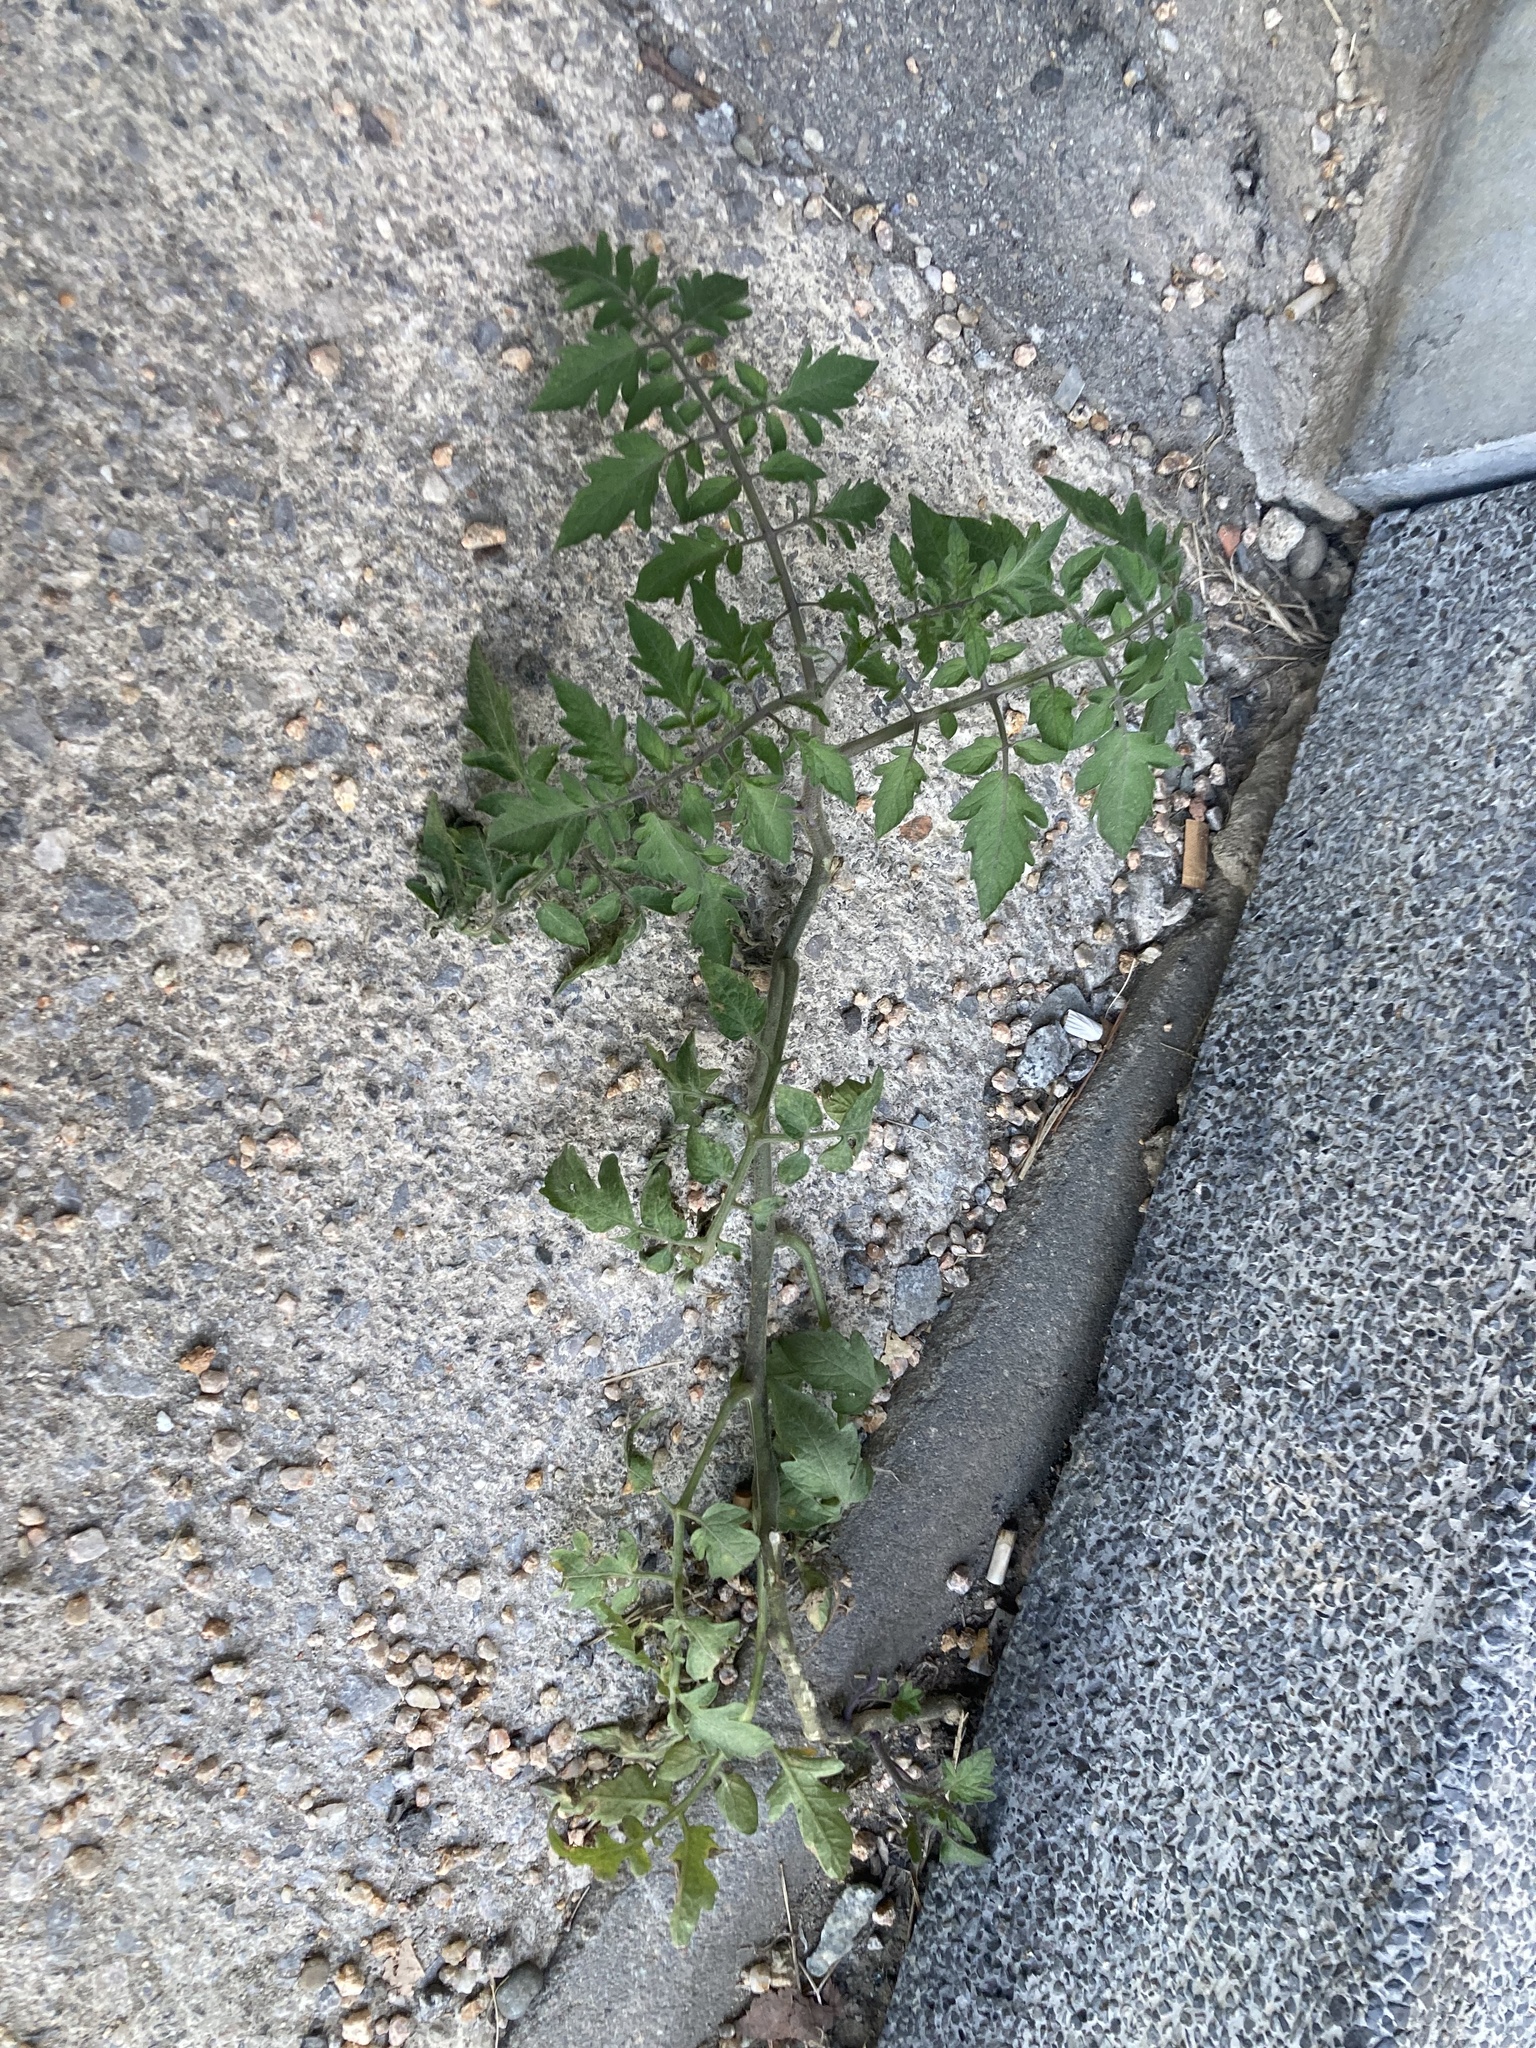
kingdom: Plantae
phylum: Tracheophyta
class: Magnoliopsida
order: Solanales
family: Solanaceae
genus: Solanum
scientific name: Solanum lycopersicum
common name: Garden tomato
